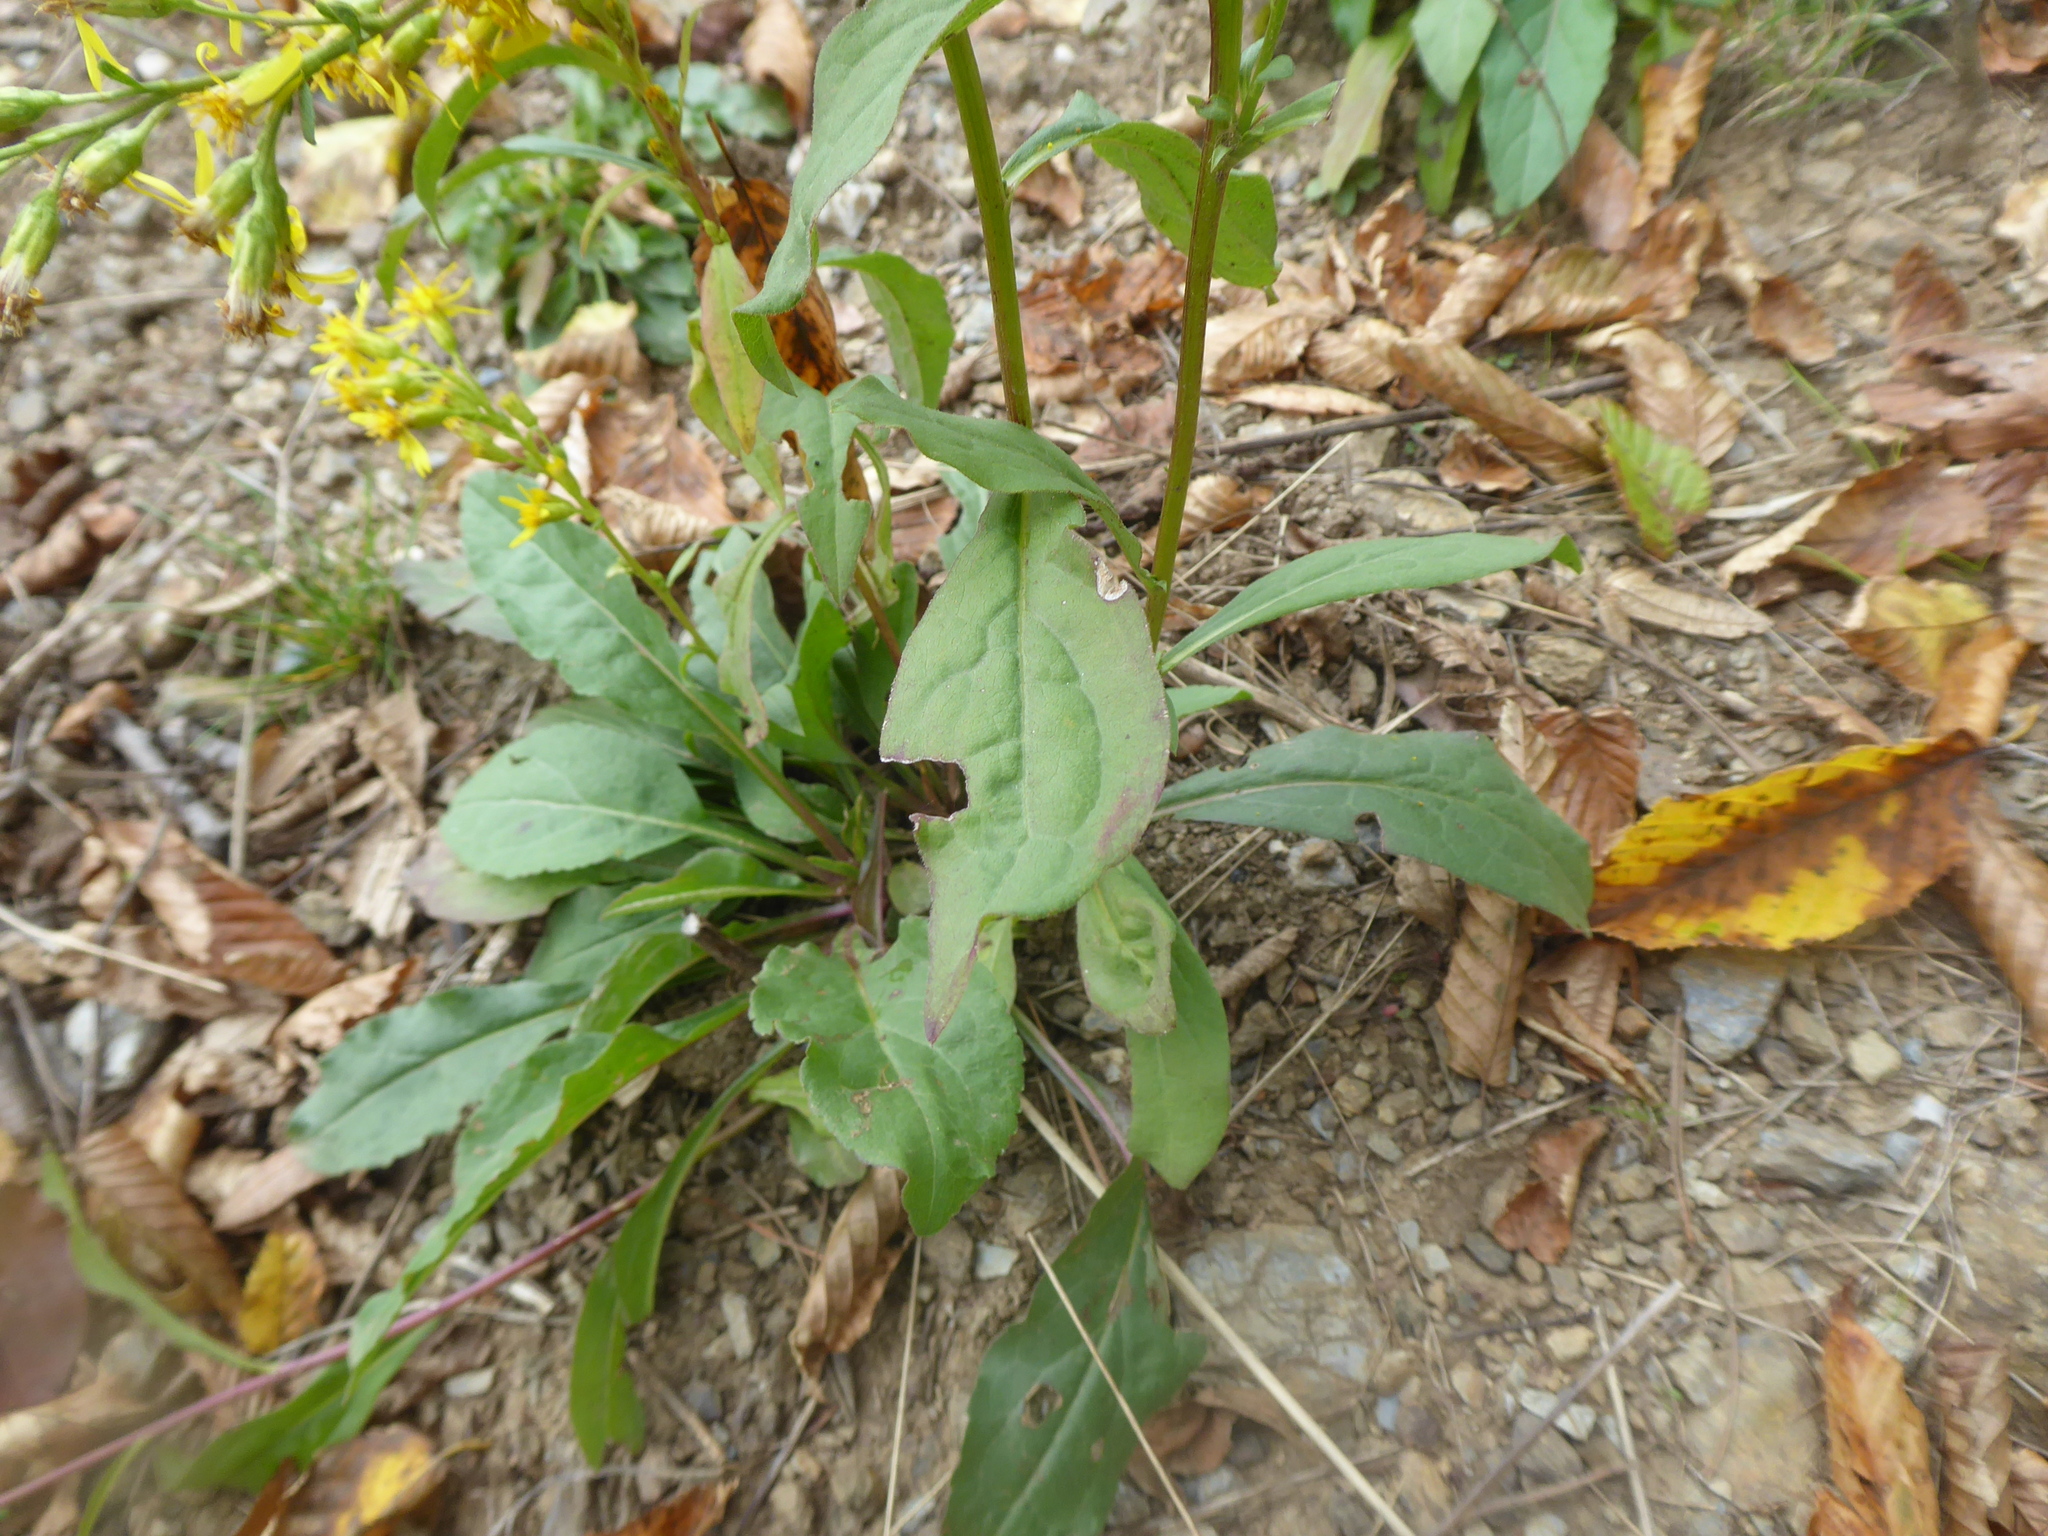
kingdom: Plantae
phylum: Tracheophyta
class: Magnoliopsida
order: Asterales
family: Asteraceae
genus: Solidago
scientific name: Solidago virgaurea
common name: Goldenrod
